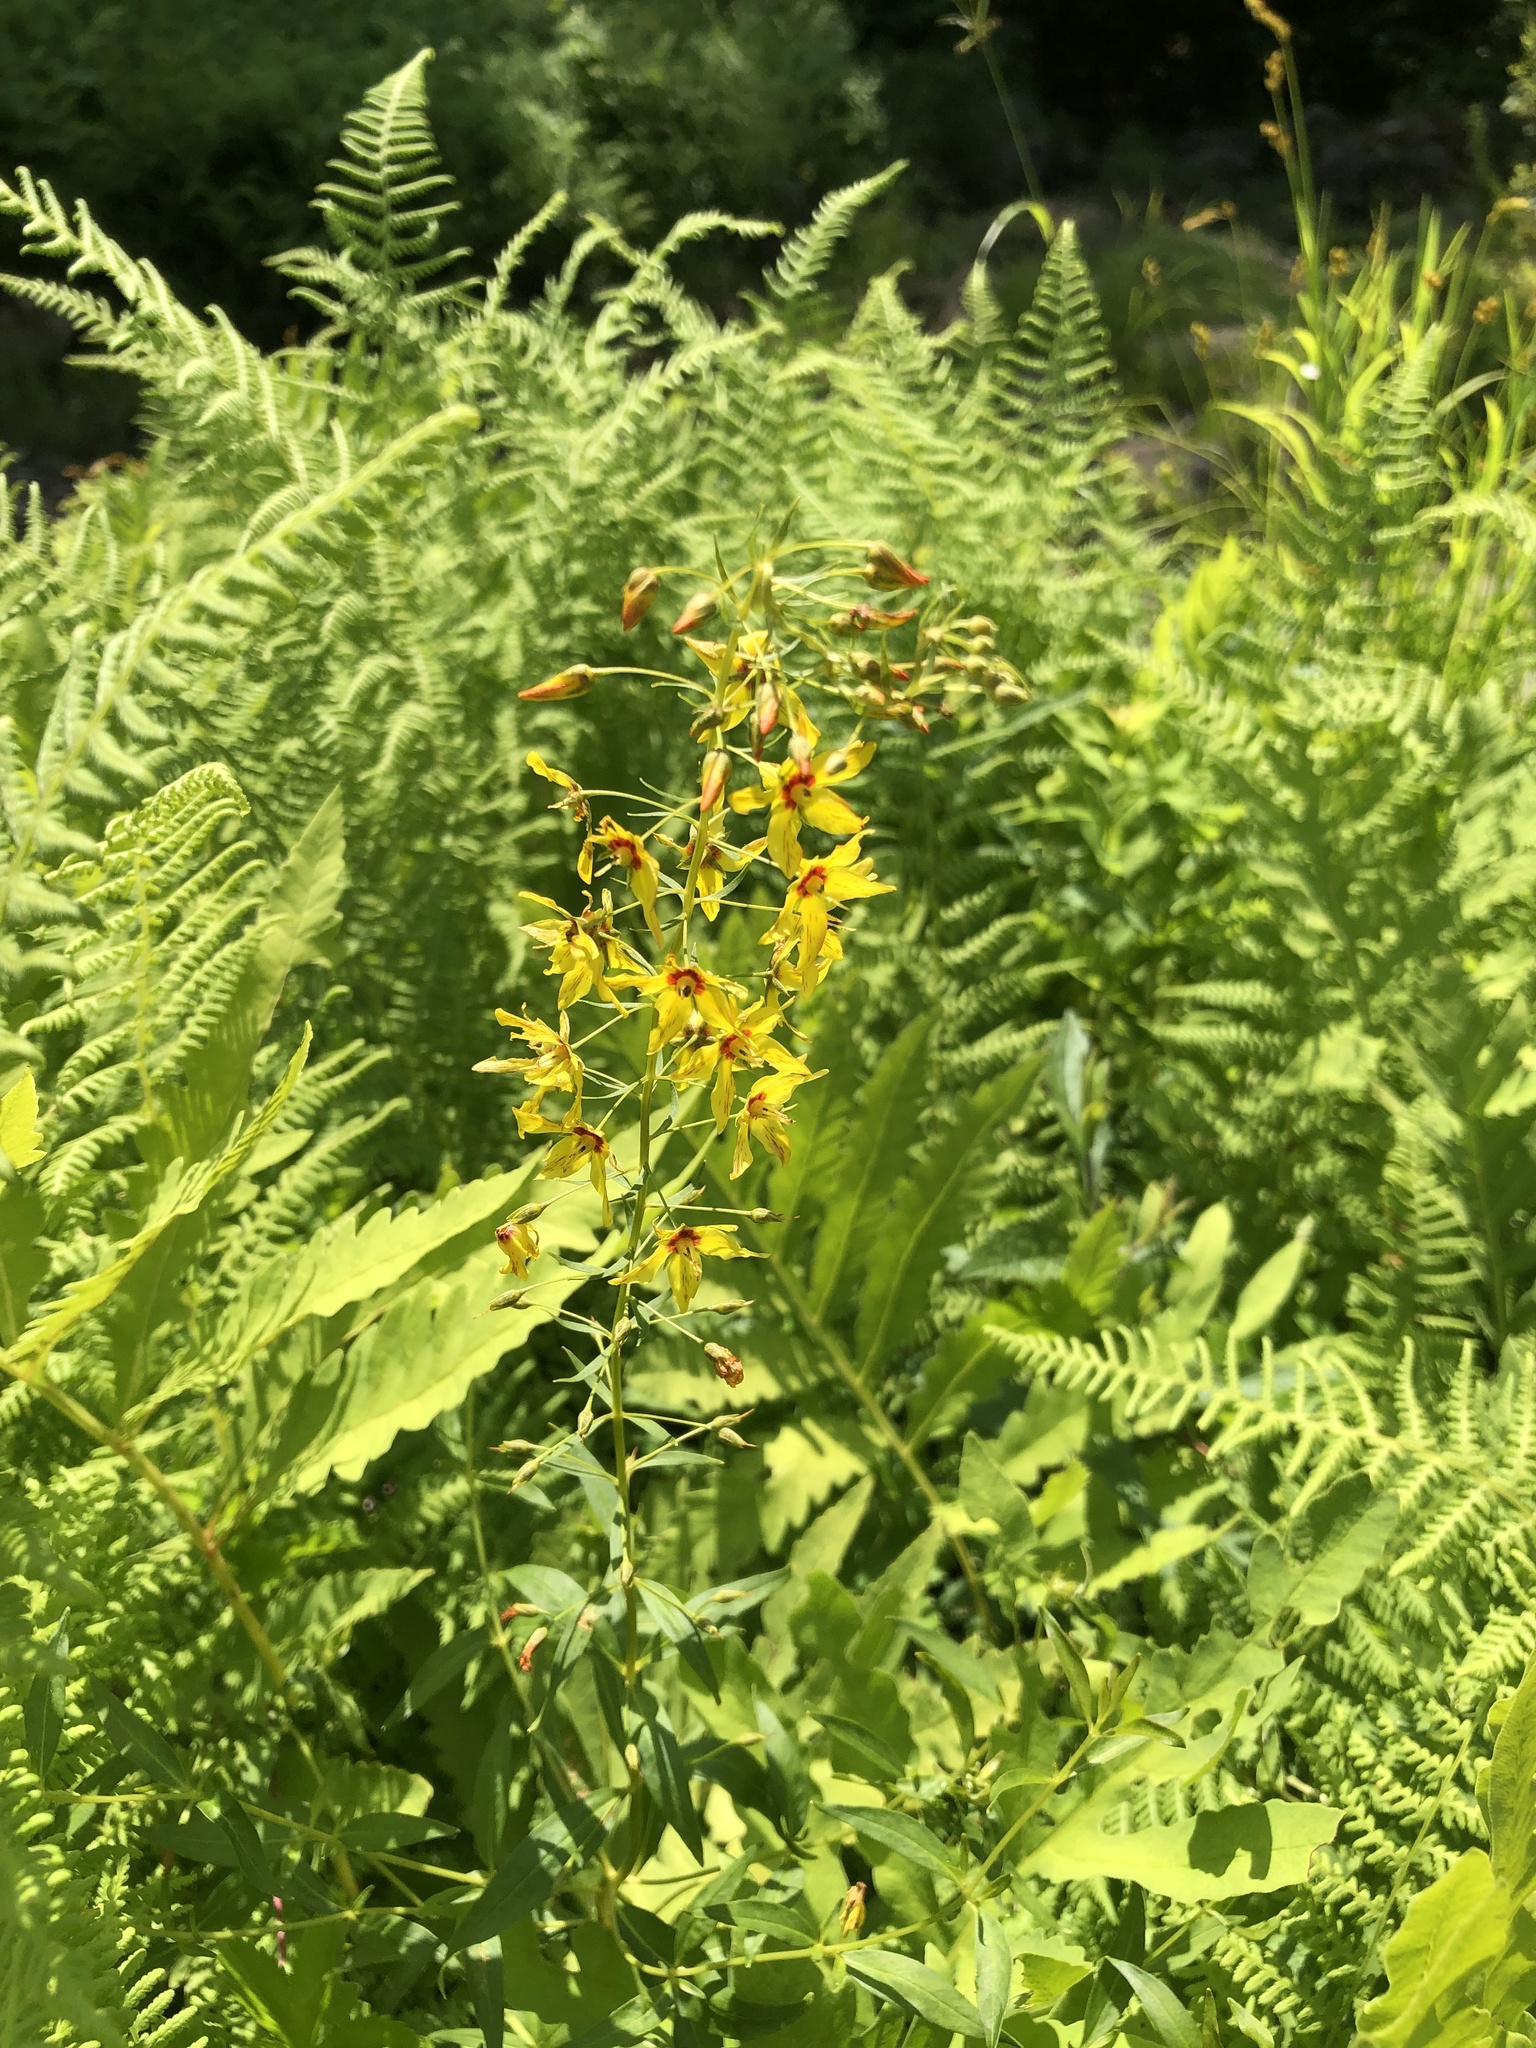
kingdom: Plantae
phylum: Tracheophyta
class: Magnoliopsida
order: Ericales
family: Primulaceae
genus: Lysimachia
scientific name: Lysimachia terrestris
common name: Lake loosestrife
